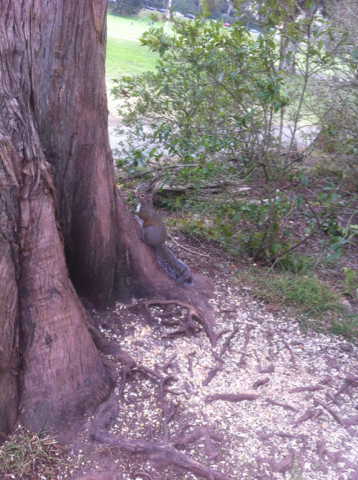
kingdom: Animalia
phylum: Chordata
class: Mammalia
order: Rodentia
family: Sciuridae
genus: Sciurus
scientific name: Sciurus carolinensis
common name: Eastern gray squirrel
